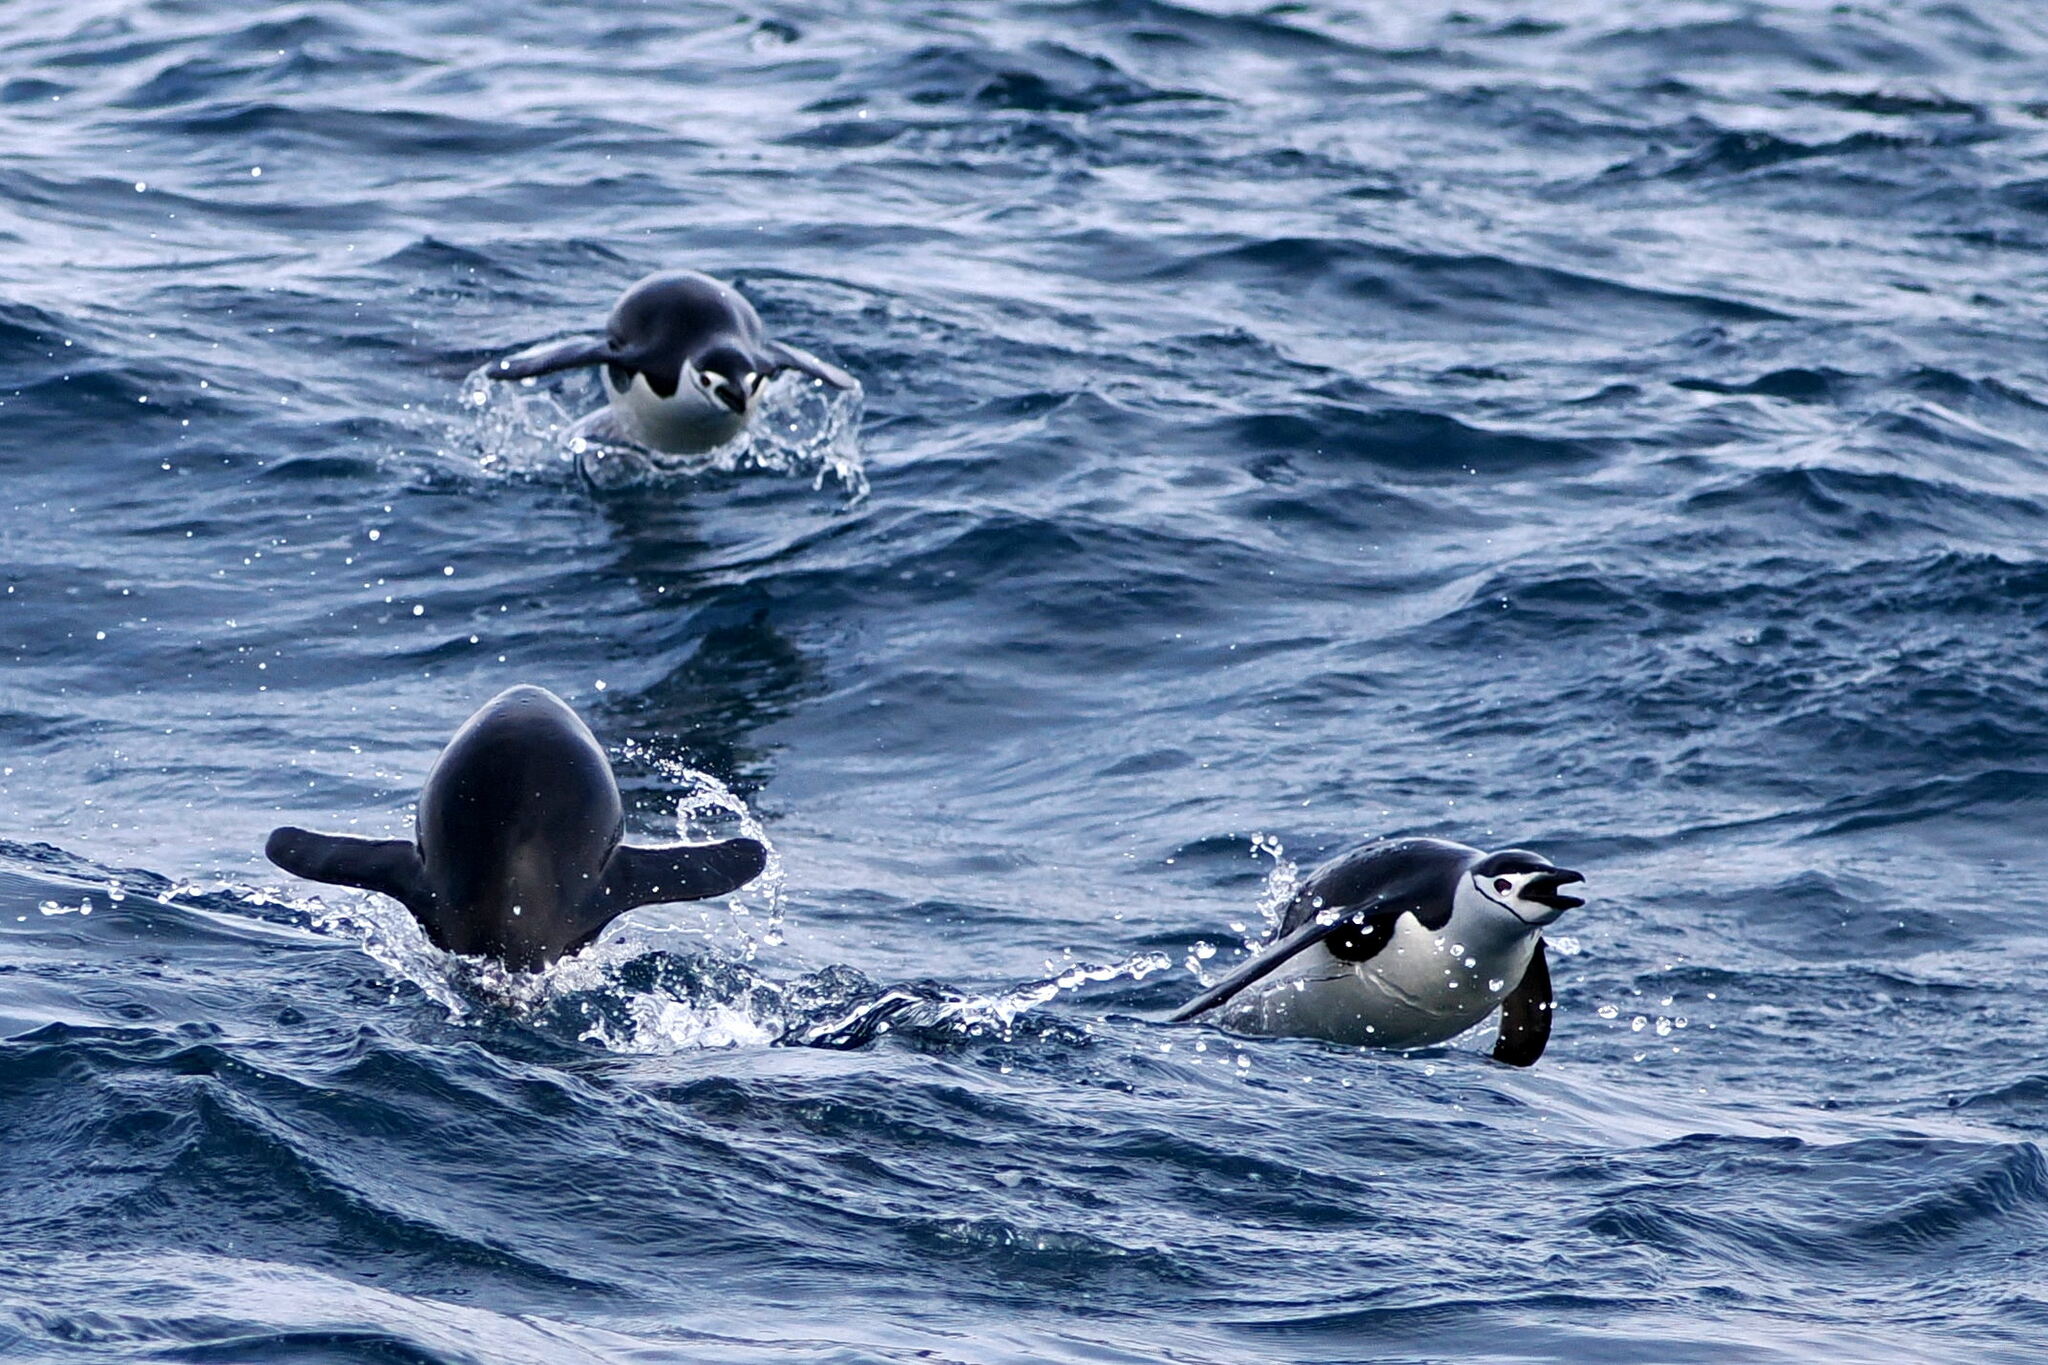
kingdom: Animalia
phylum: Chordata
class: Aves
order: Sphenisciformes
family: Spheniscidae
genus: Pygoscelis
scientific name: Pygoscelis antarcticus
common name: Chinstrap penguin
